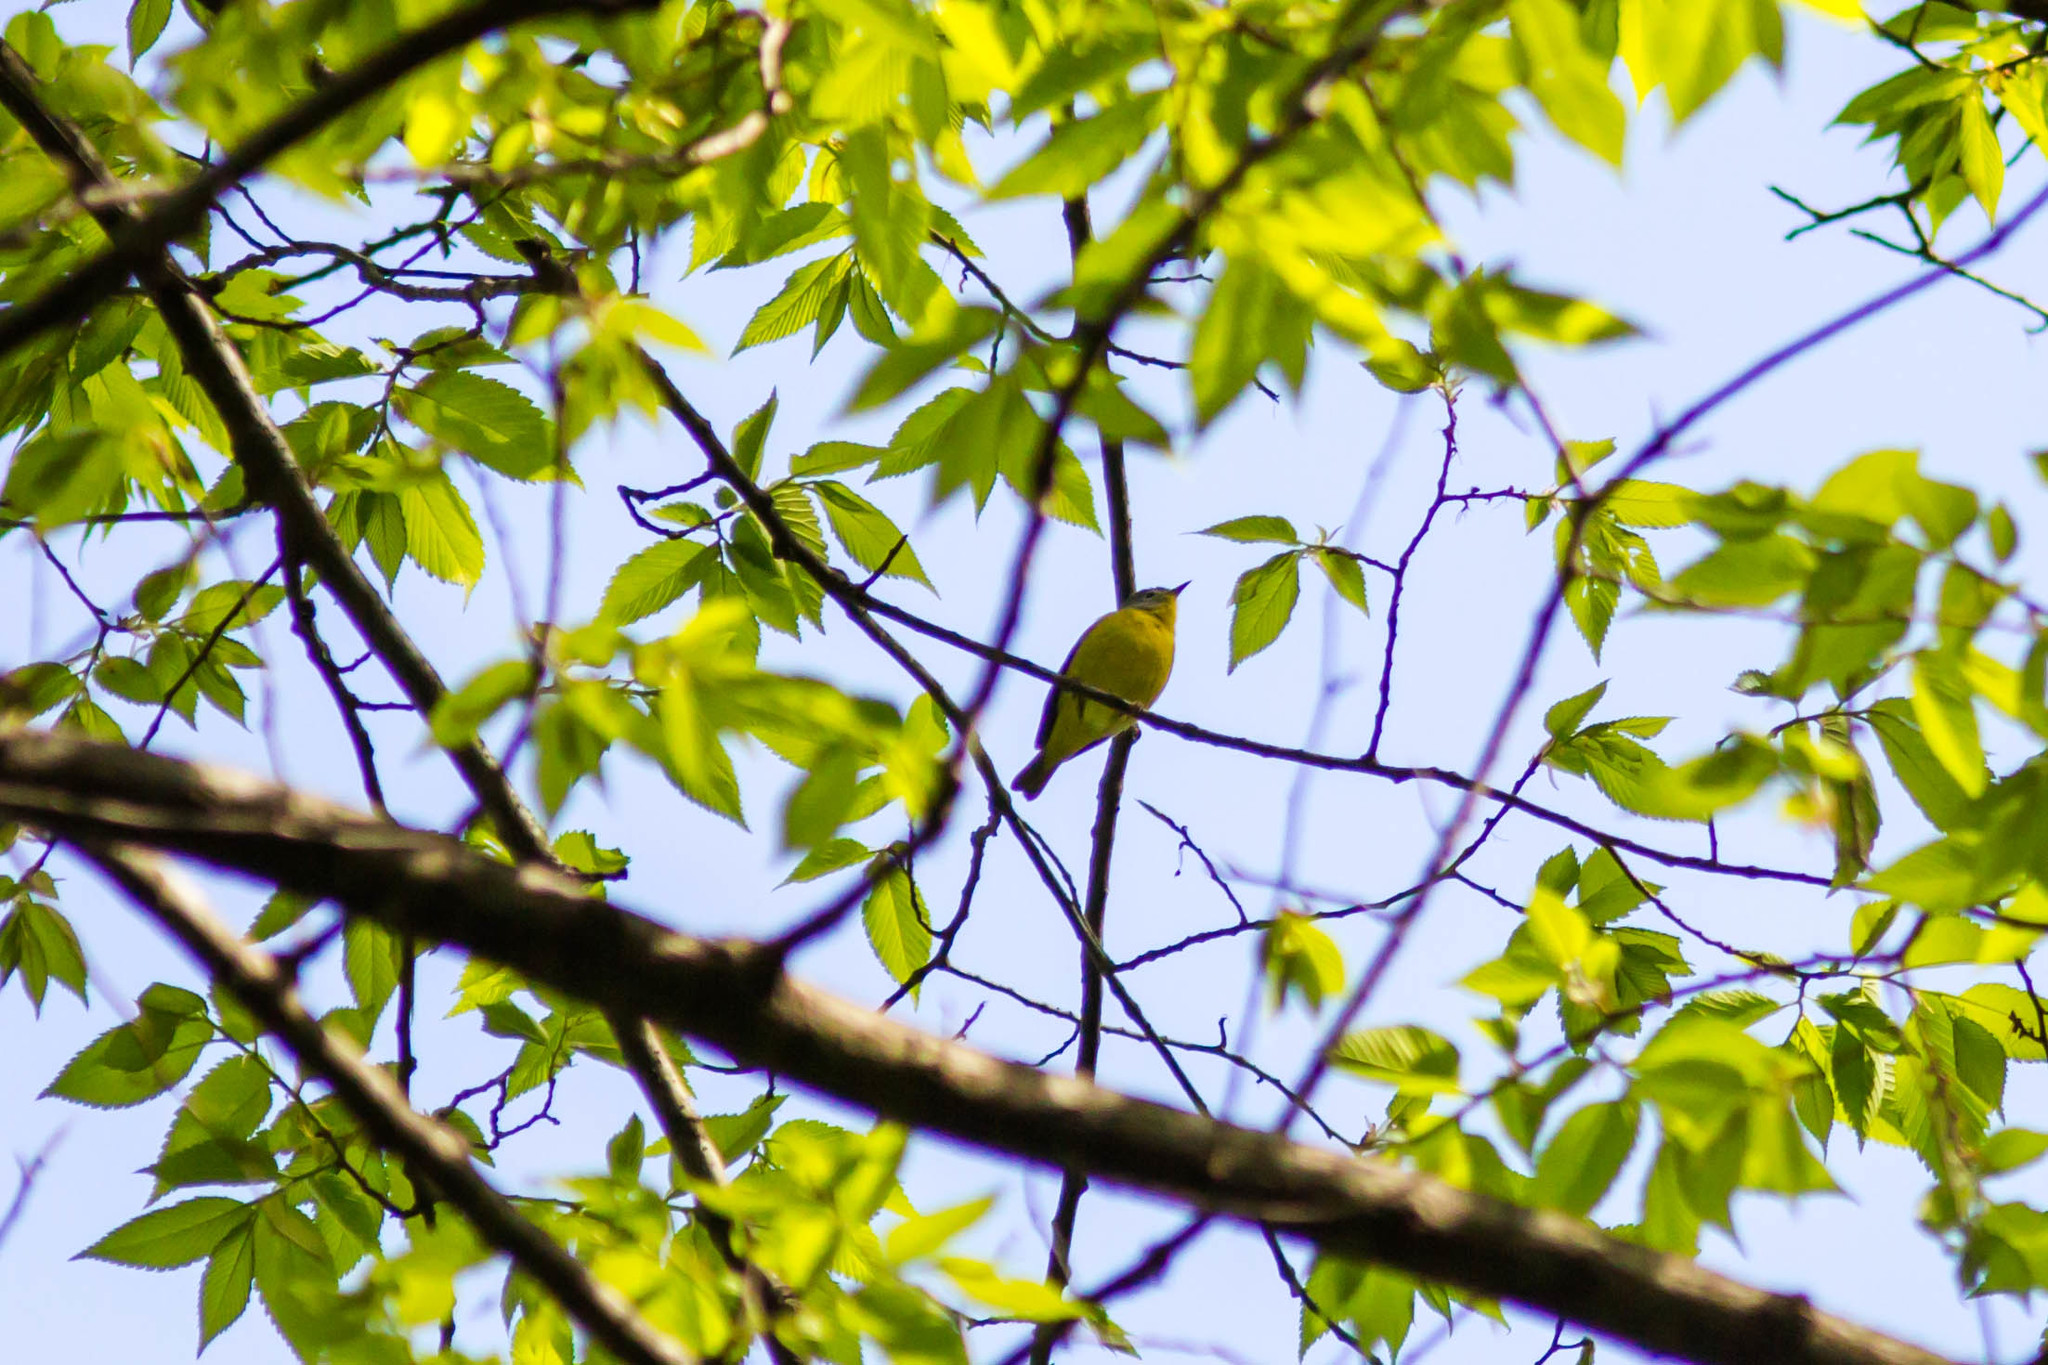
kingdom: Animalia
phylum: Chordata
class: Aves
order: Passeriformes
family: Parulidae
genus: Leiothlypis
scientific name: Leiothlypis ruficapilla
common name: Nashville warbler
